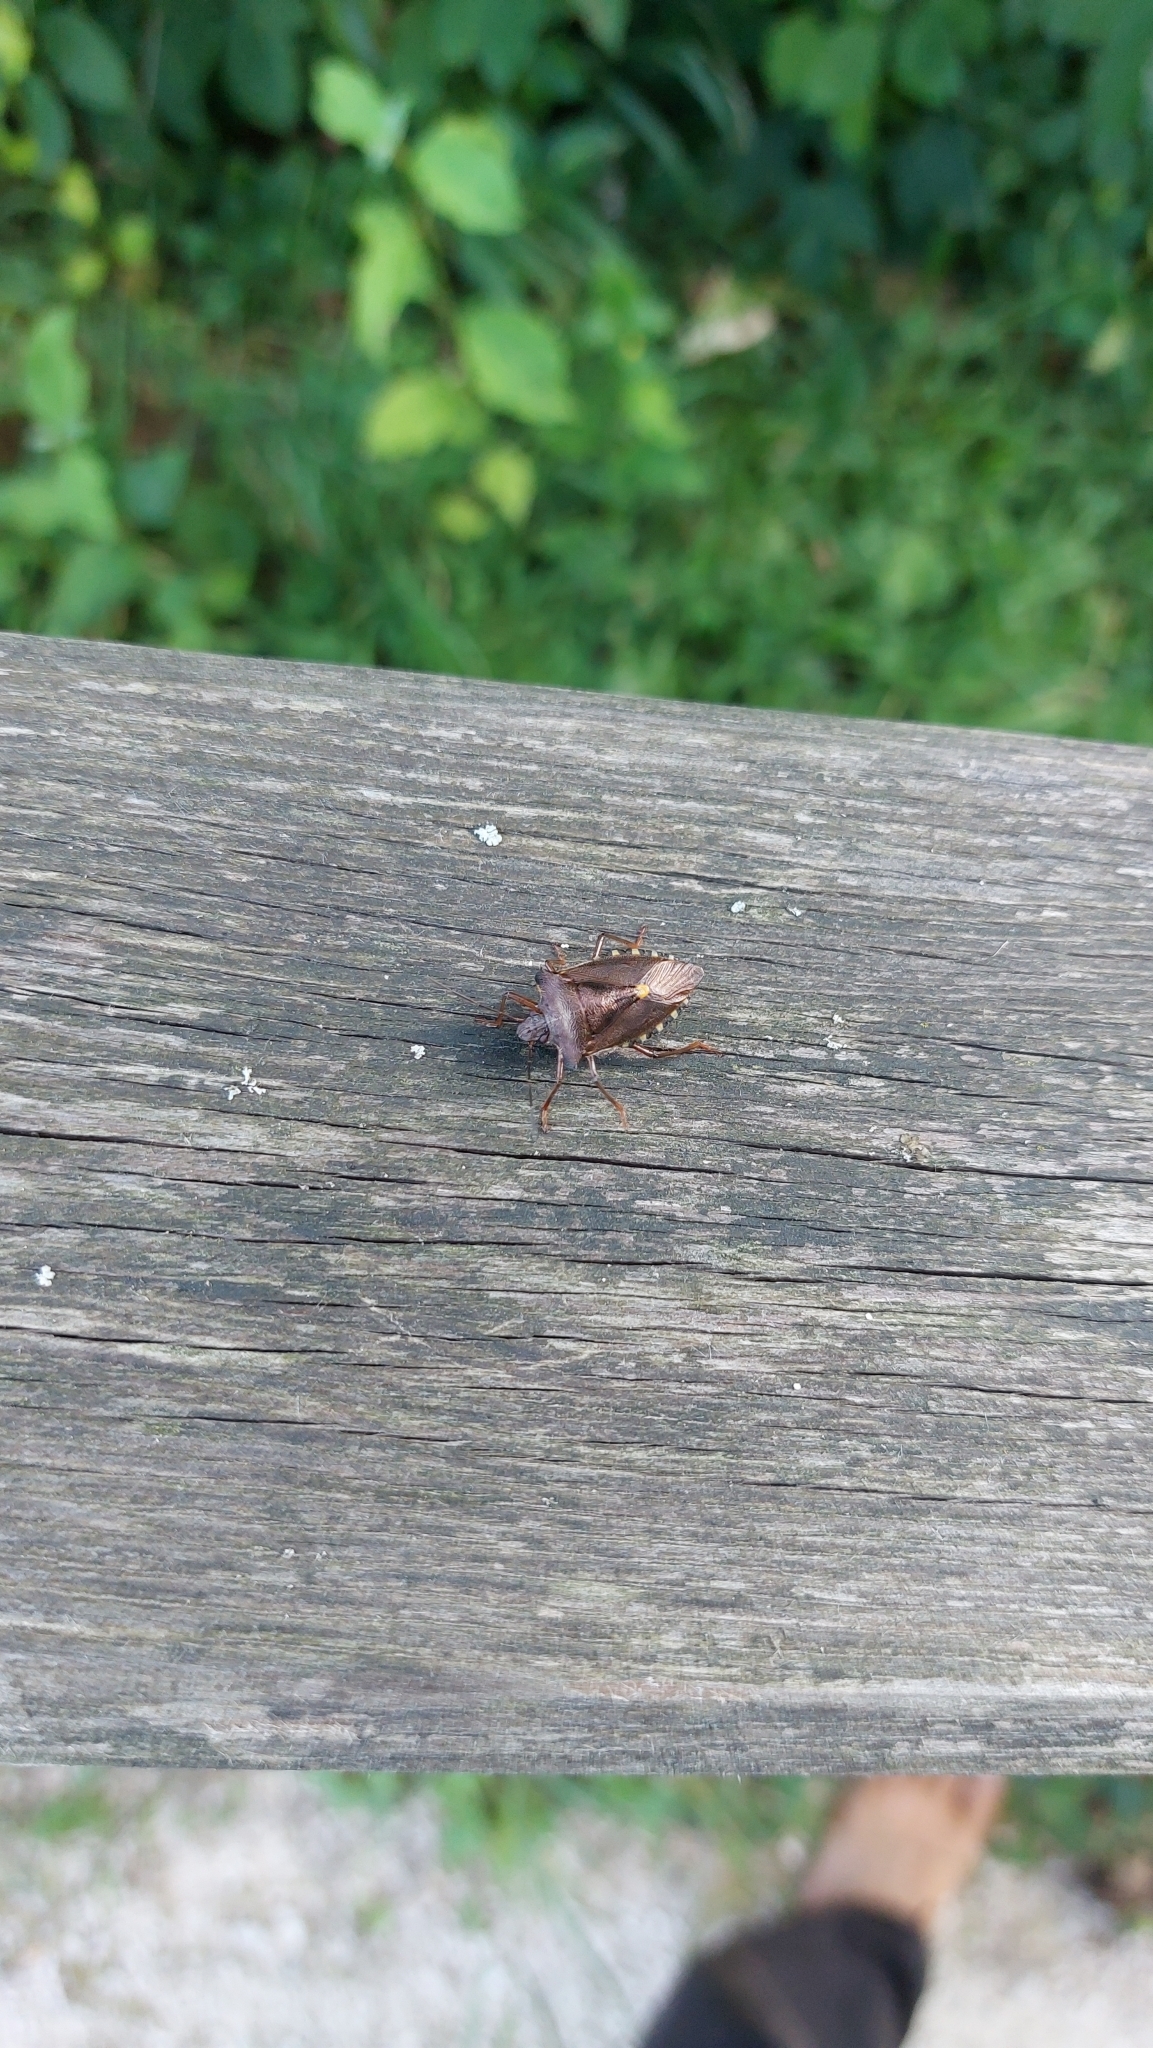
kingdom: Animalia
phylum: Arthropoda
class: Insecta
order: Hemiptera
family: Pentatomidae
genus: Pentatoma
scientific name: Pentatoma rufipes
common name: Forest bug
